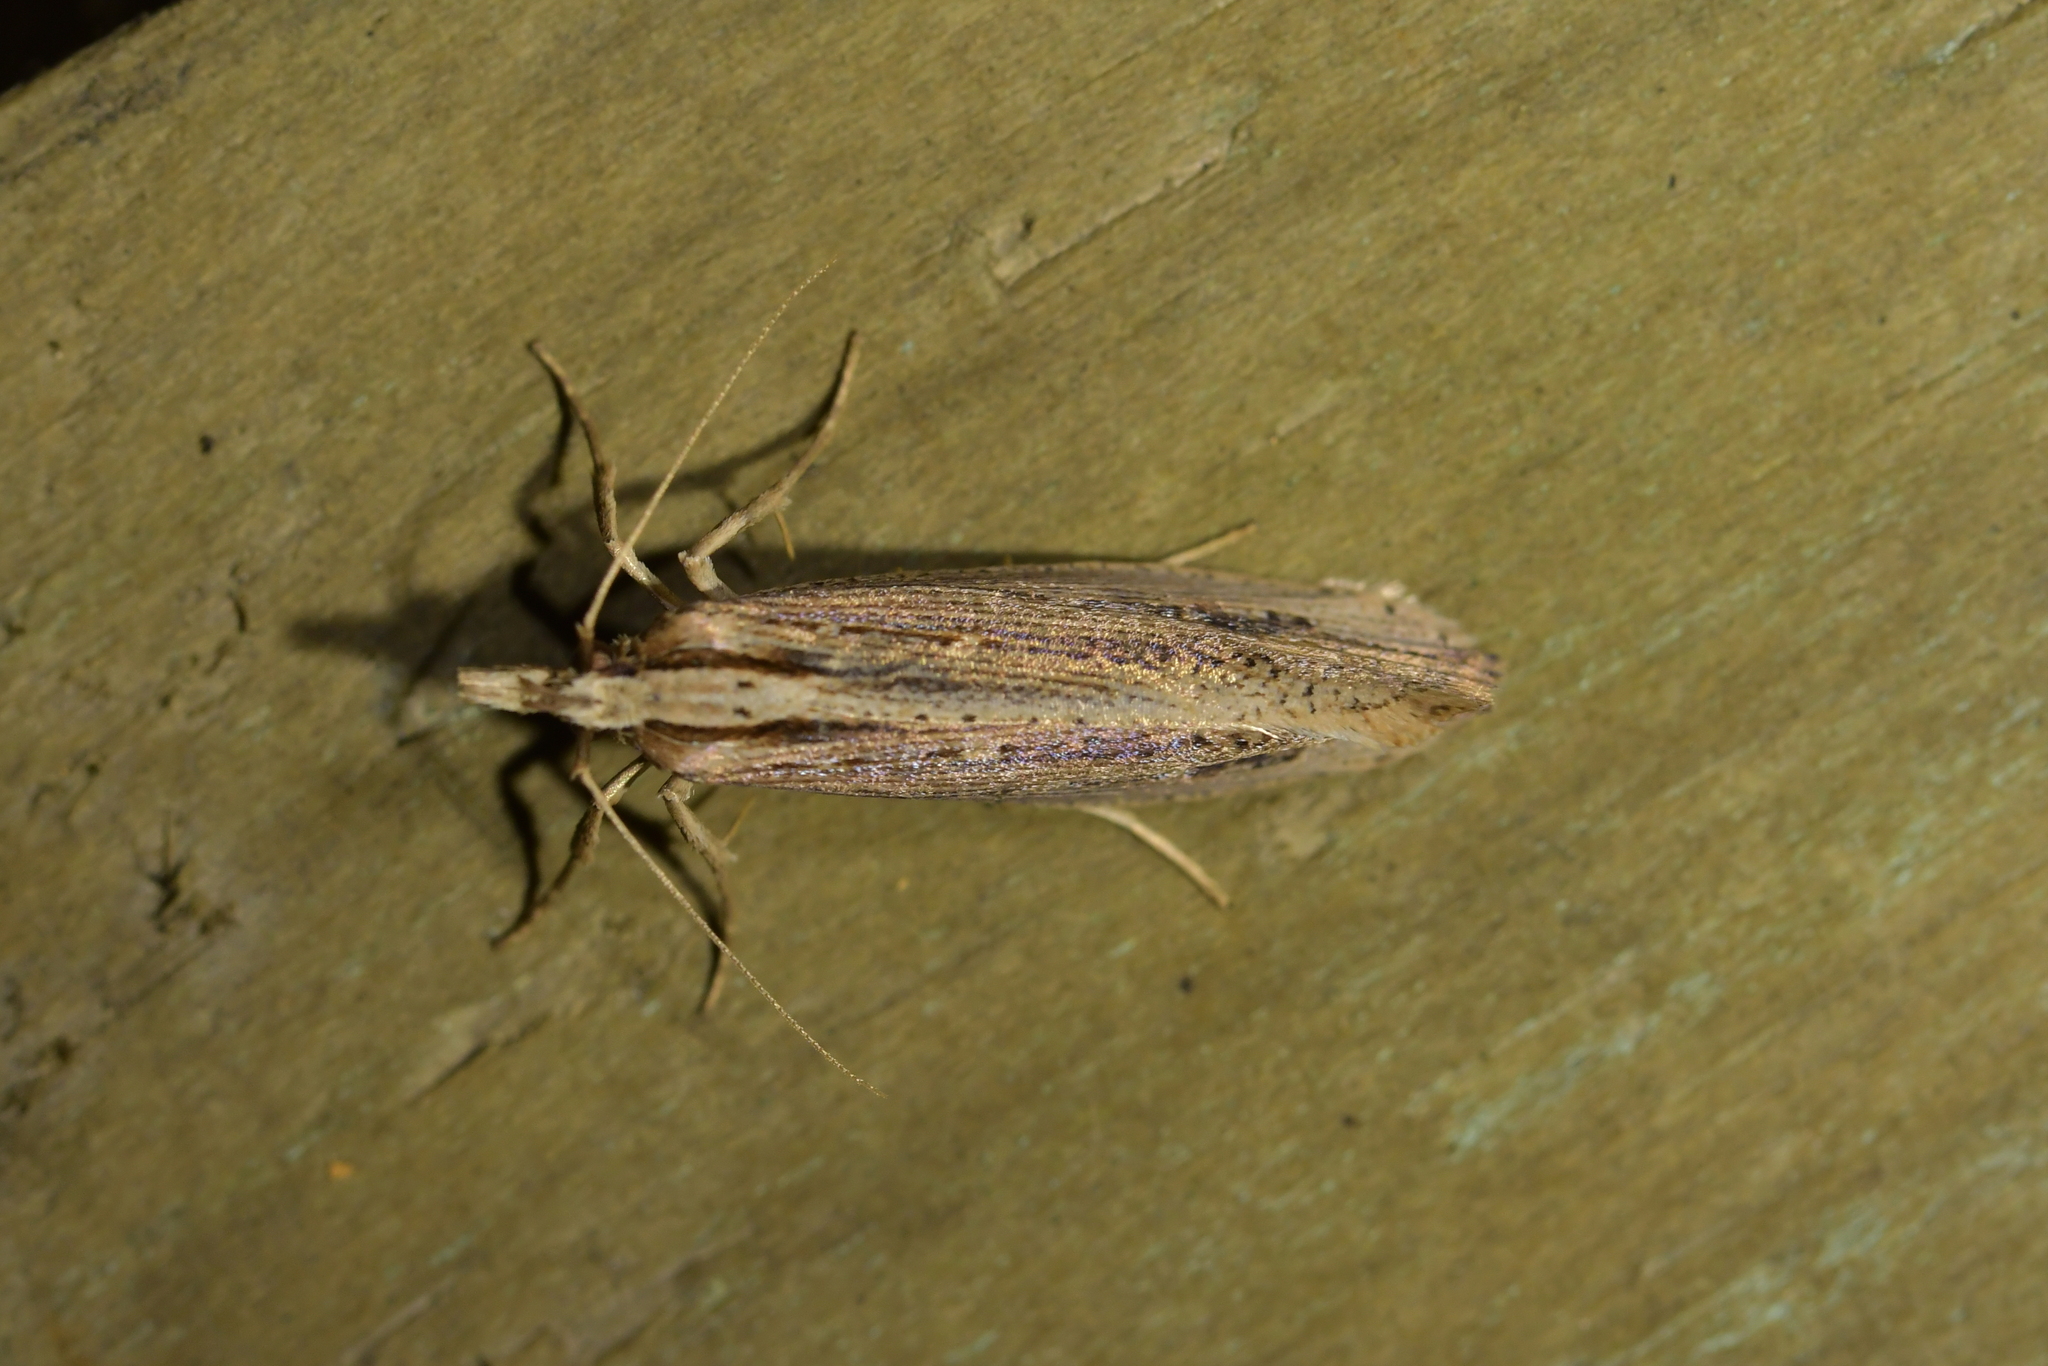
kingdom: Animalia
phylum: Arthropoda
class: Insecta
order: Lepidoptera
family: Plutellidae
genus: Proditrix
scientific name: Proditrix gahniae
